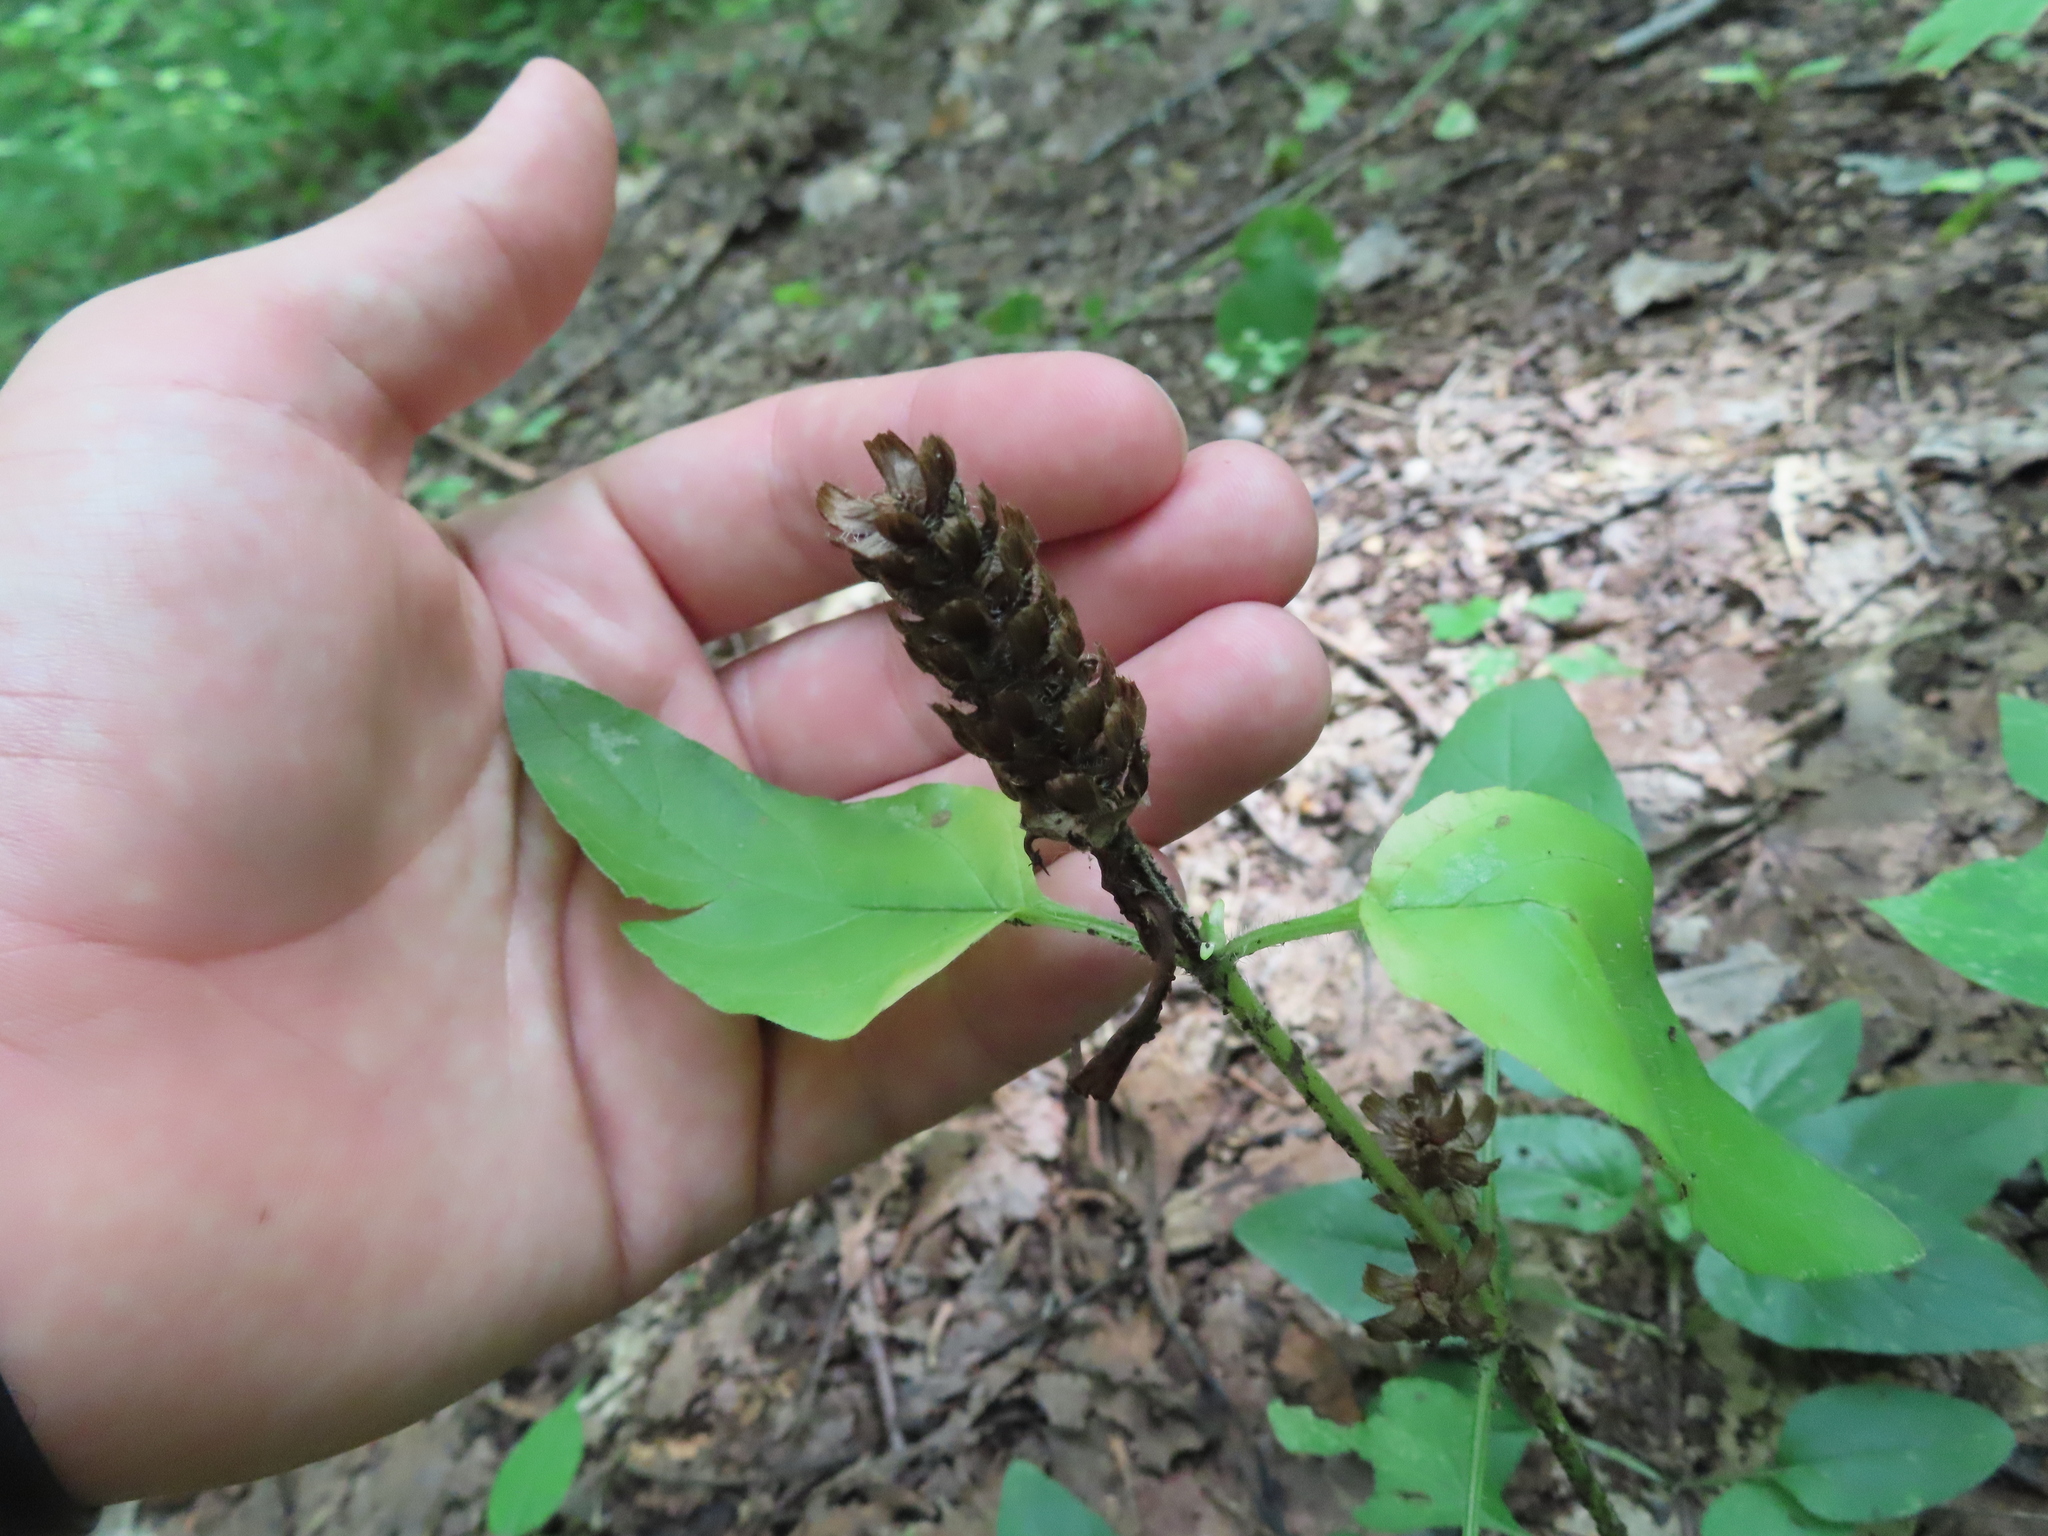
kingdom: Plantae
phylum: Tracheophyta
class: Magnoliopsida
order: Lamiales
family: Lamiaceae
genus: Prunella
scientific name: Prunella vulgaris
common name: Heal-all
